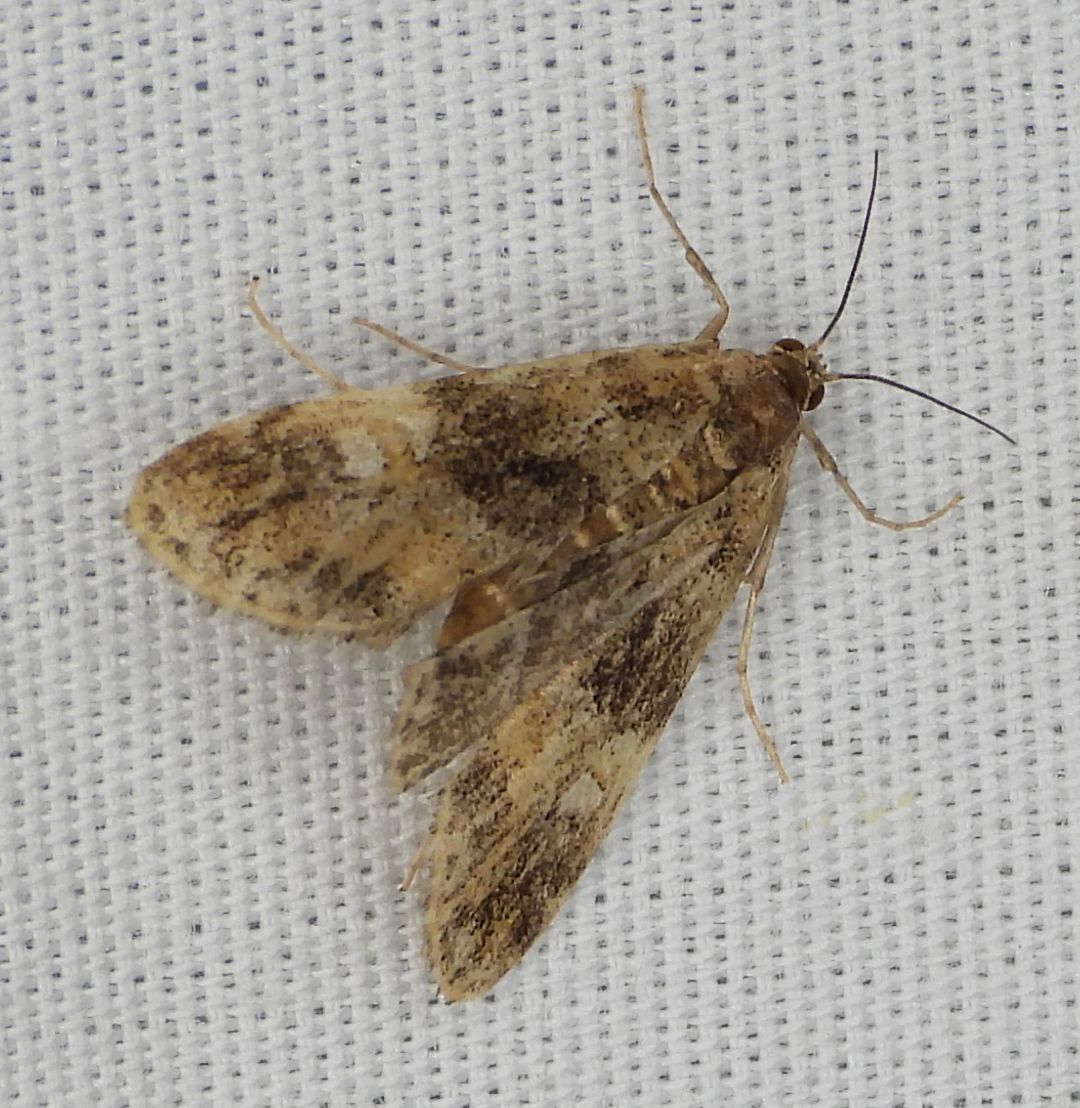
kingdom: Animalia
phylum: Arthropoda
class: Insecta
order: Lepidoptera
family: Crambidae
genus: Elophila
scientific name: Elophila obliteralis
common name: Waterlily leafcutter moth
